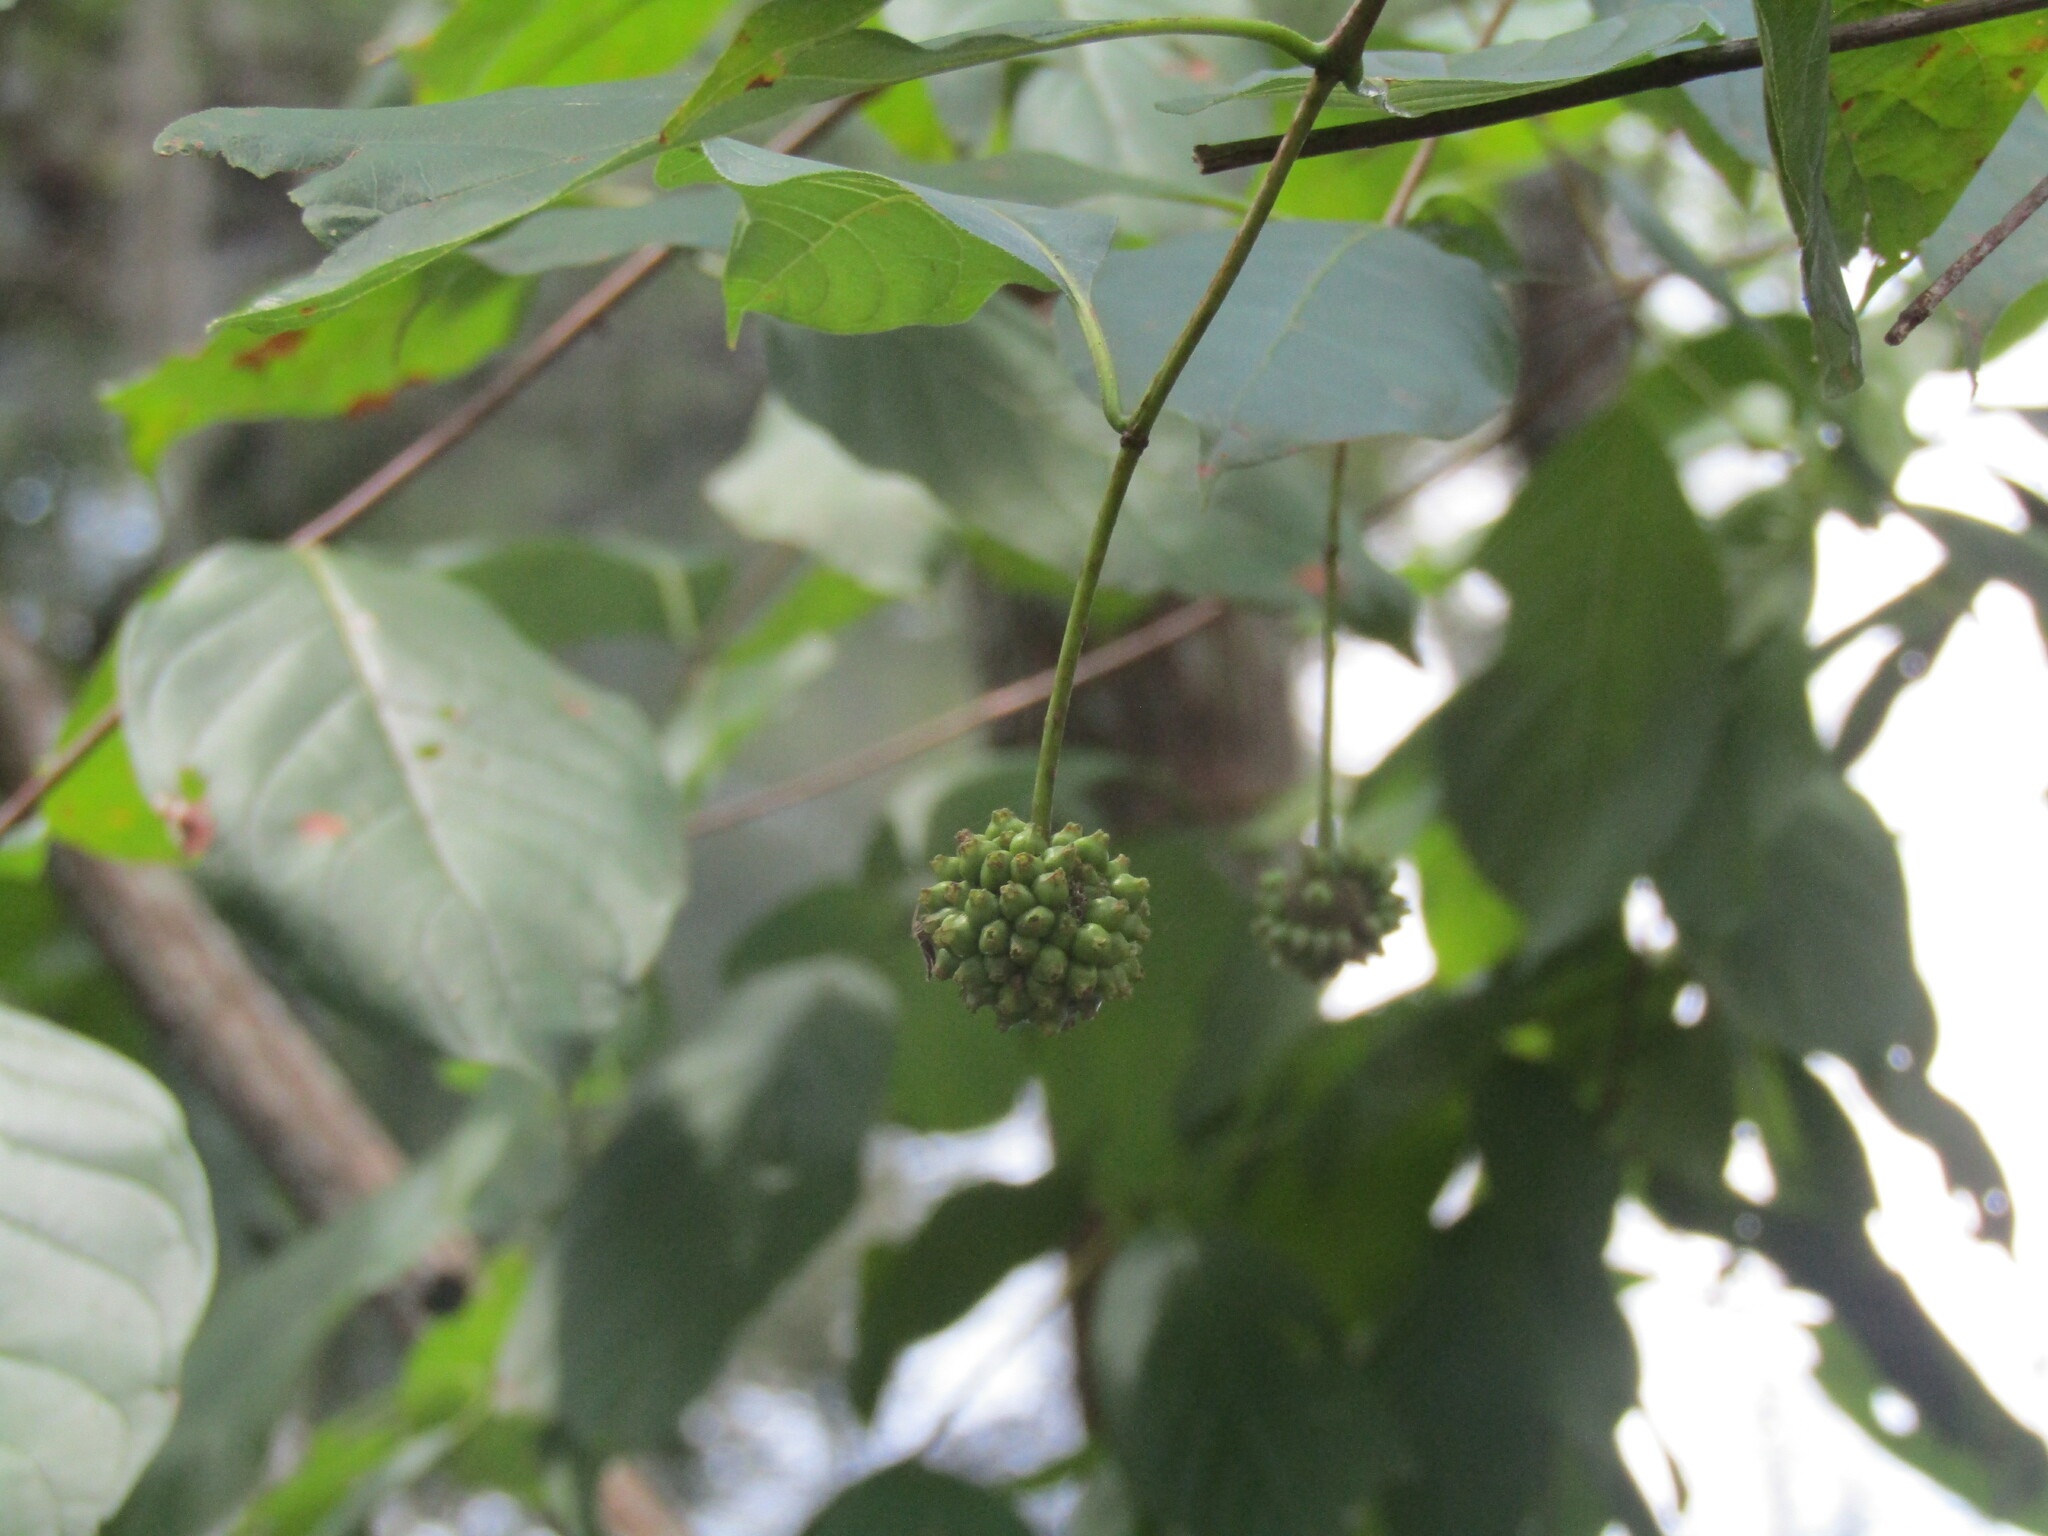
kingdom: Plantae
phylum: Tracheophyta
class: Magnoliopsida
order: Gentianales
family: Rubiaceae
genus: Cephalanthus
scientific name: Cephalanthus occidentalis
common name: Button-willow
